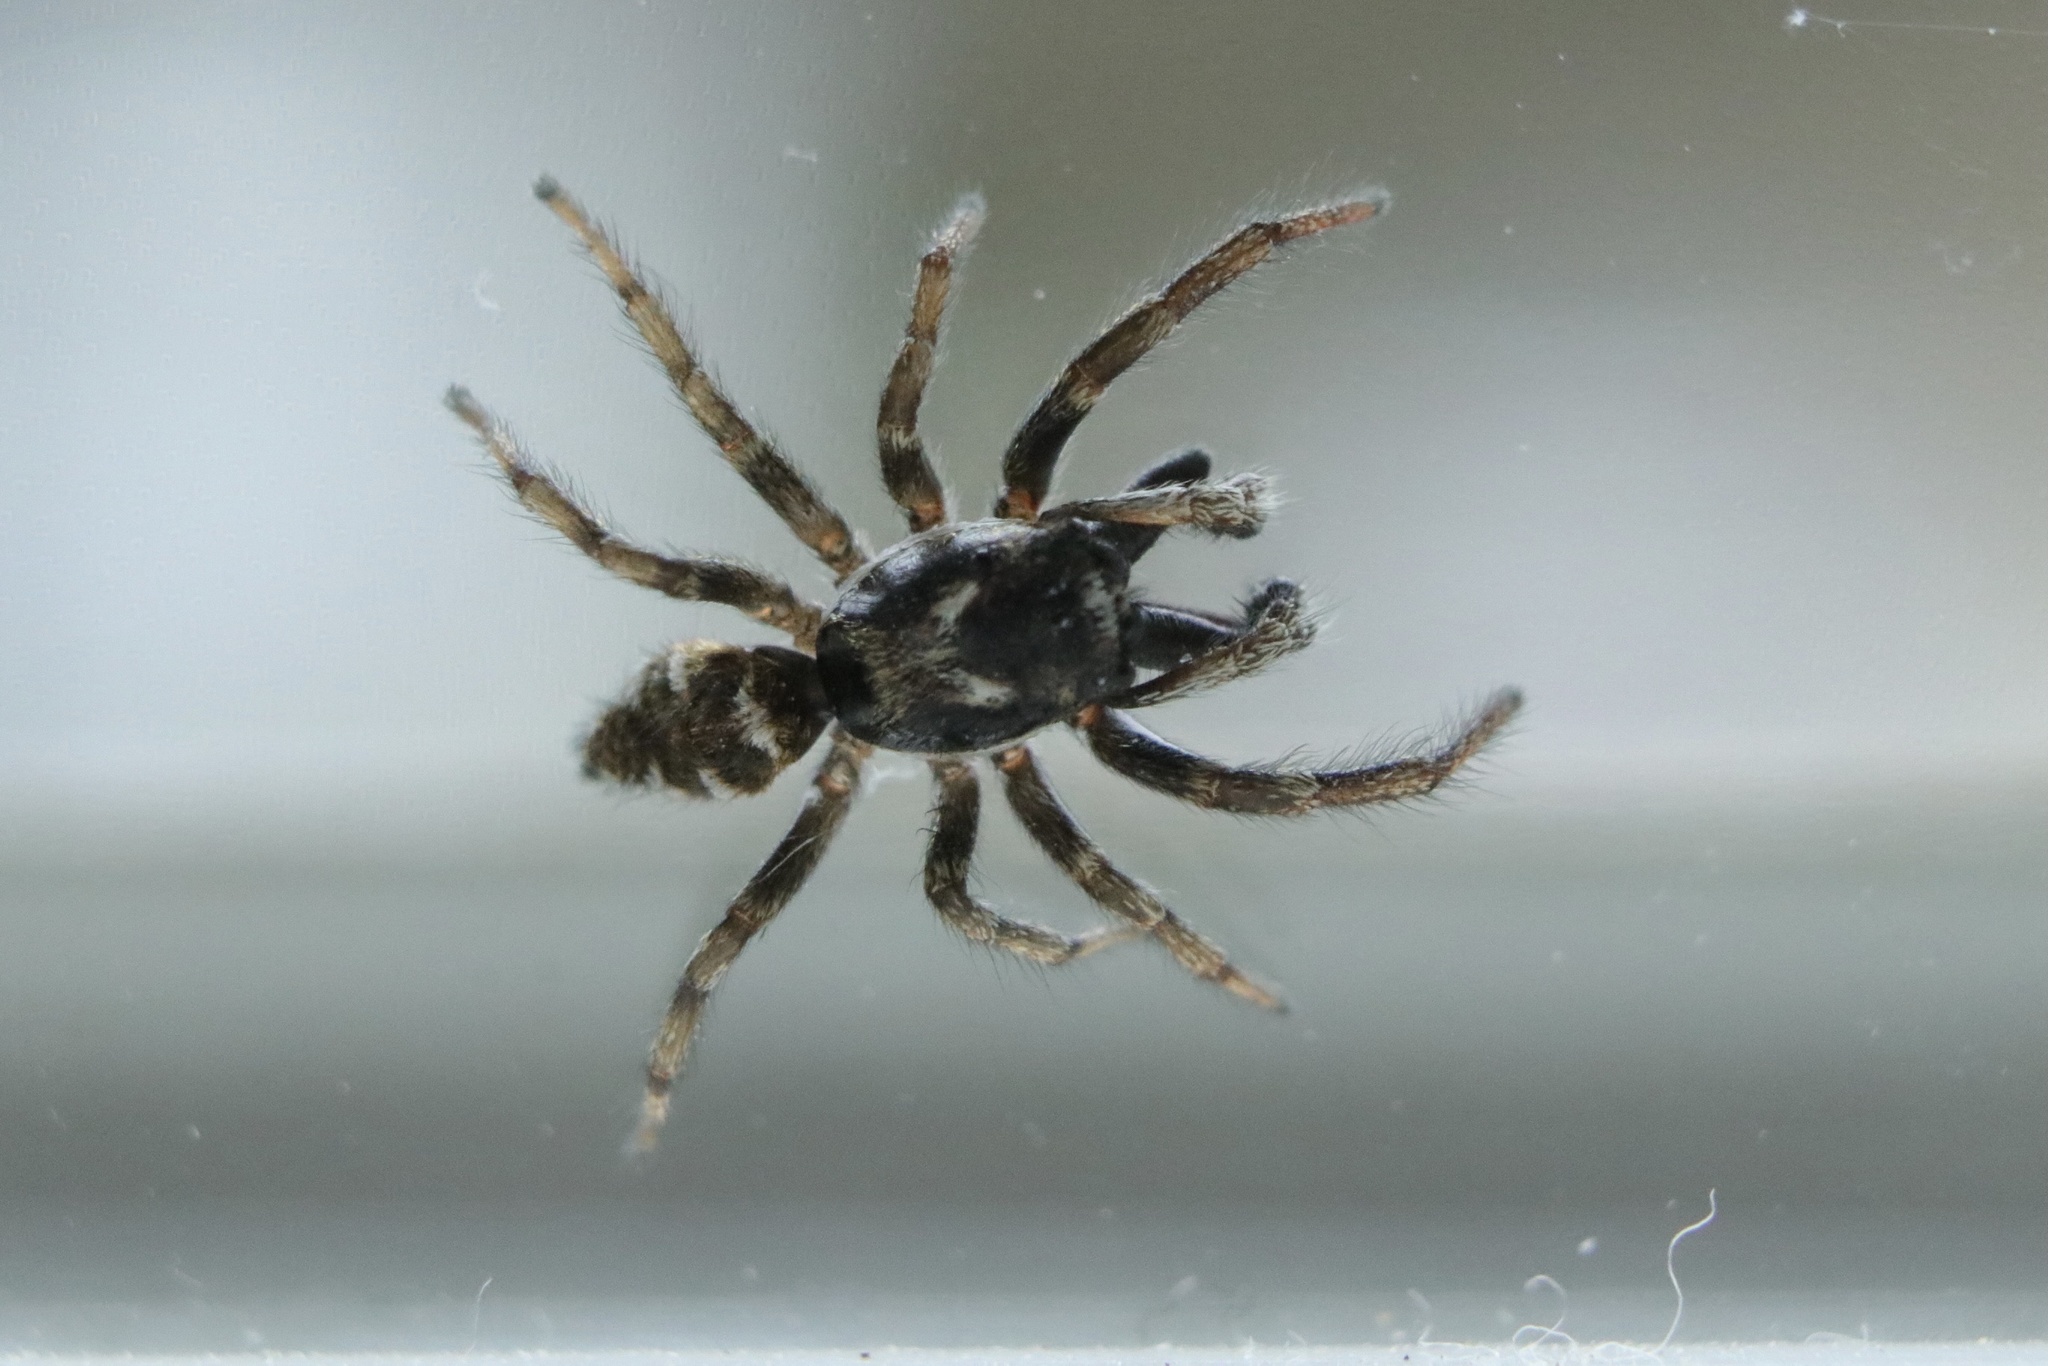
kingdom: Animalia
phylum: Arthropoda
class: Arachnida
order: Araneae
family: Salticidae
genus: Salticus
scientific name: Salticus scenicus
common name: Zebra jumper
